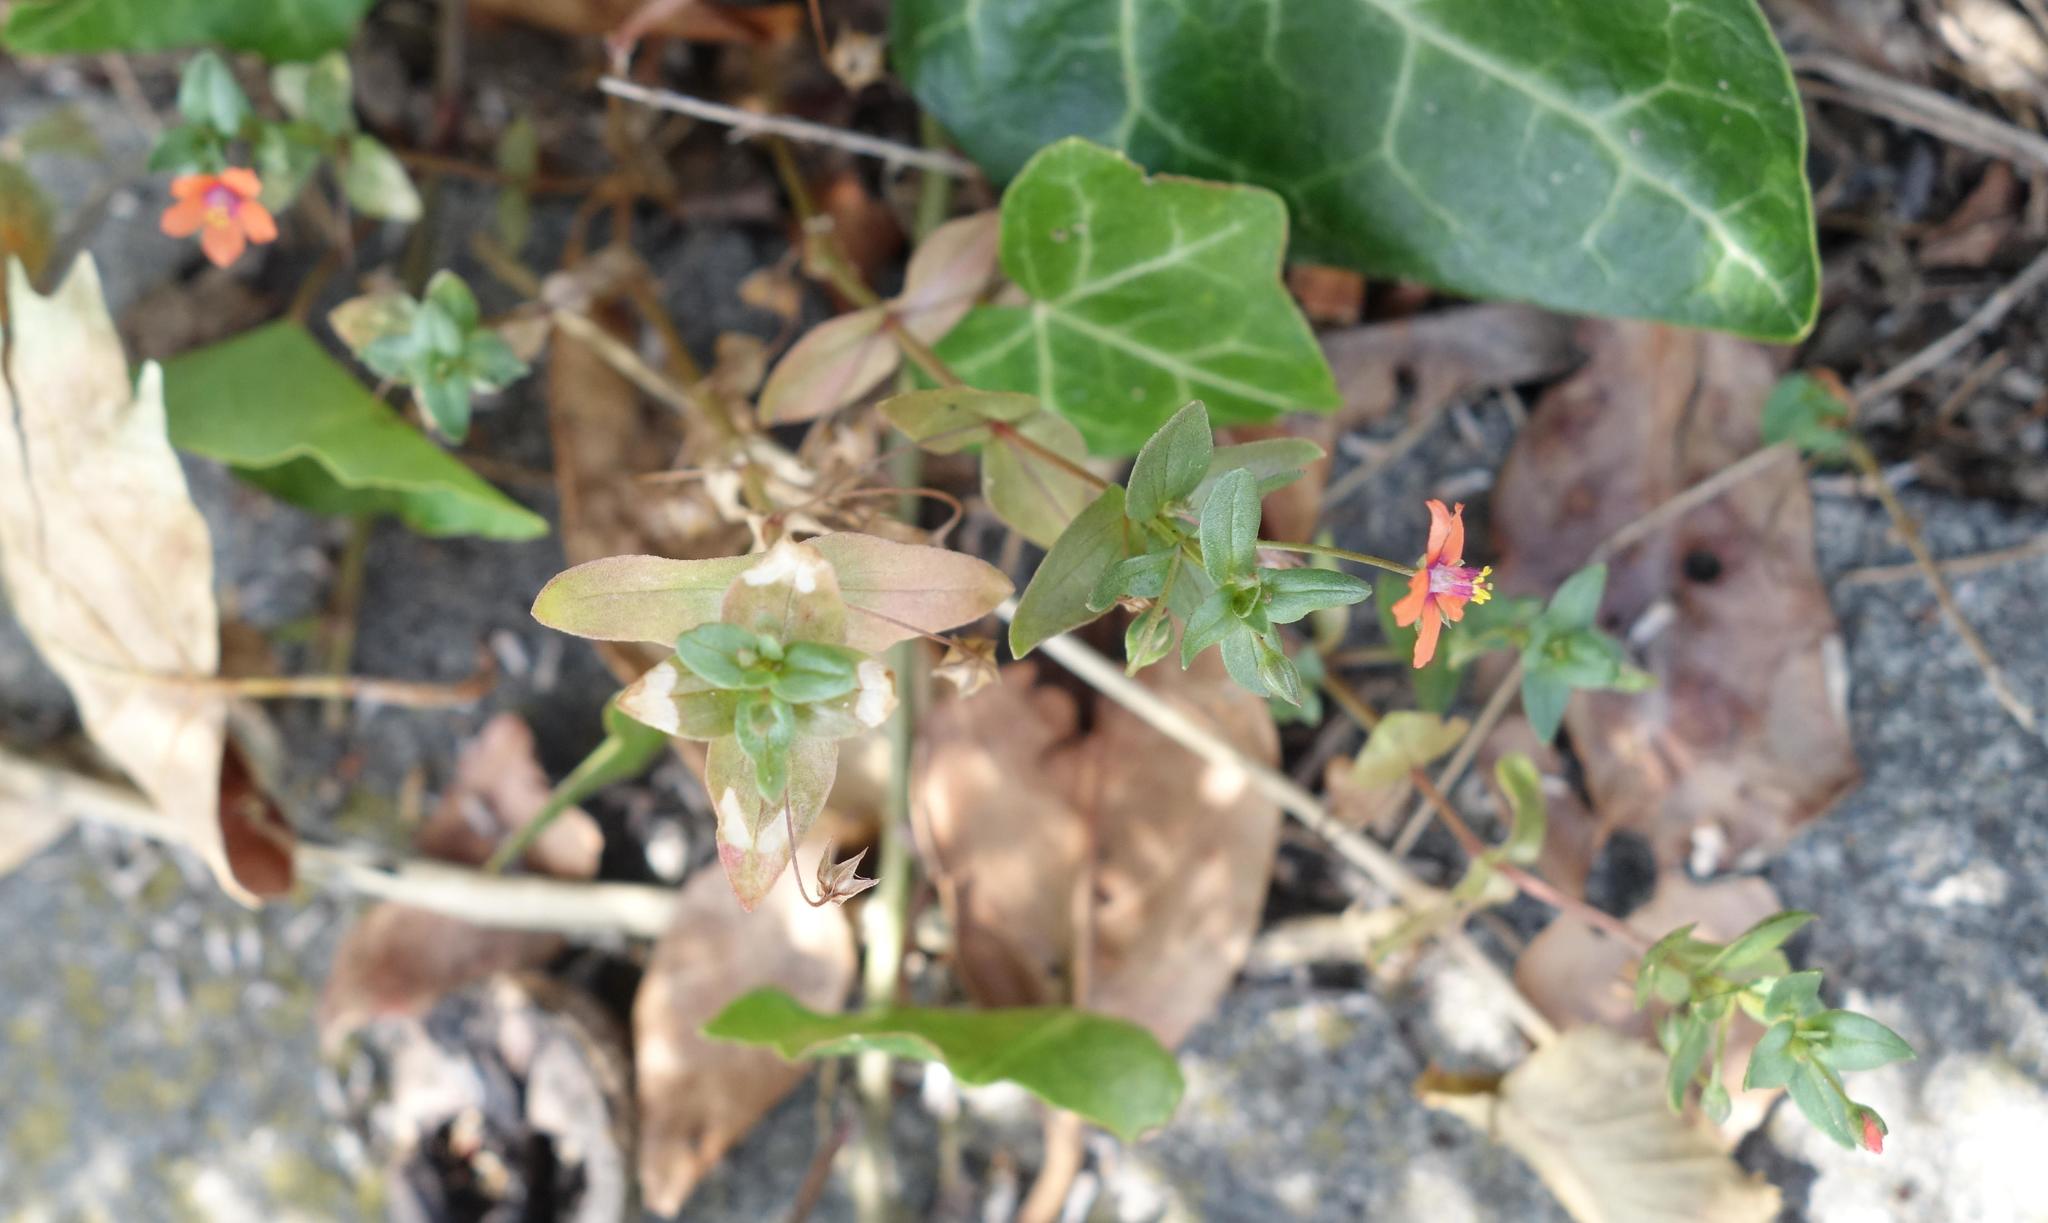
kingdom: Plantae
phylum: Tracheophyta
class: Magnoliopsida
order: Ericales
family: Primulaceae
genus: Lysimachia
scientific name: Lysimachia arvensis
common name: Scarlet pimpernel
